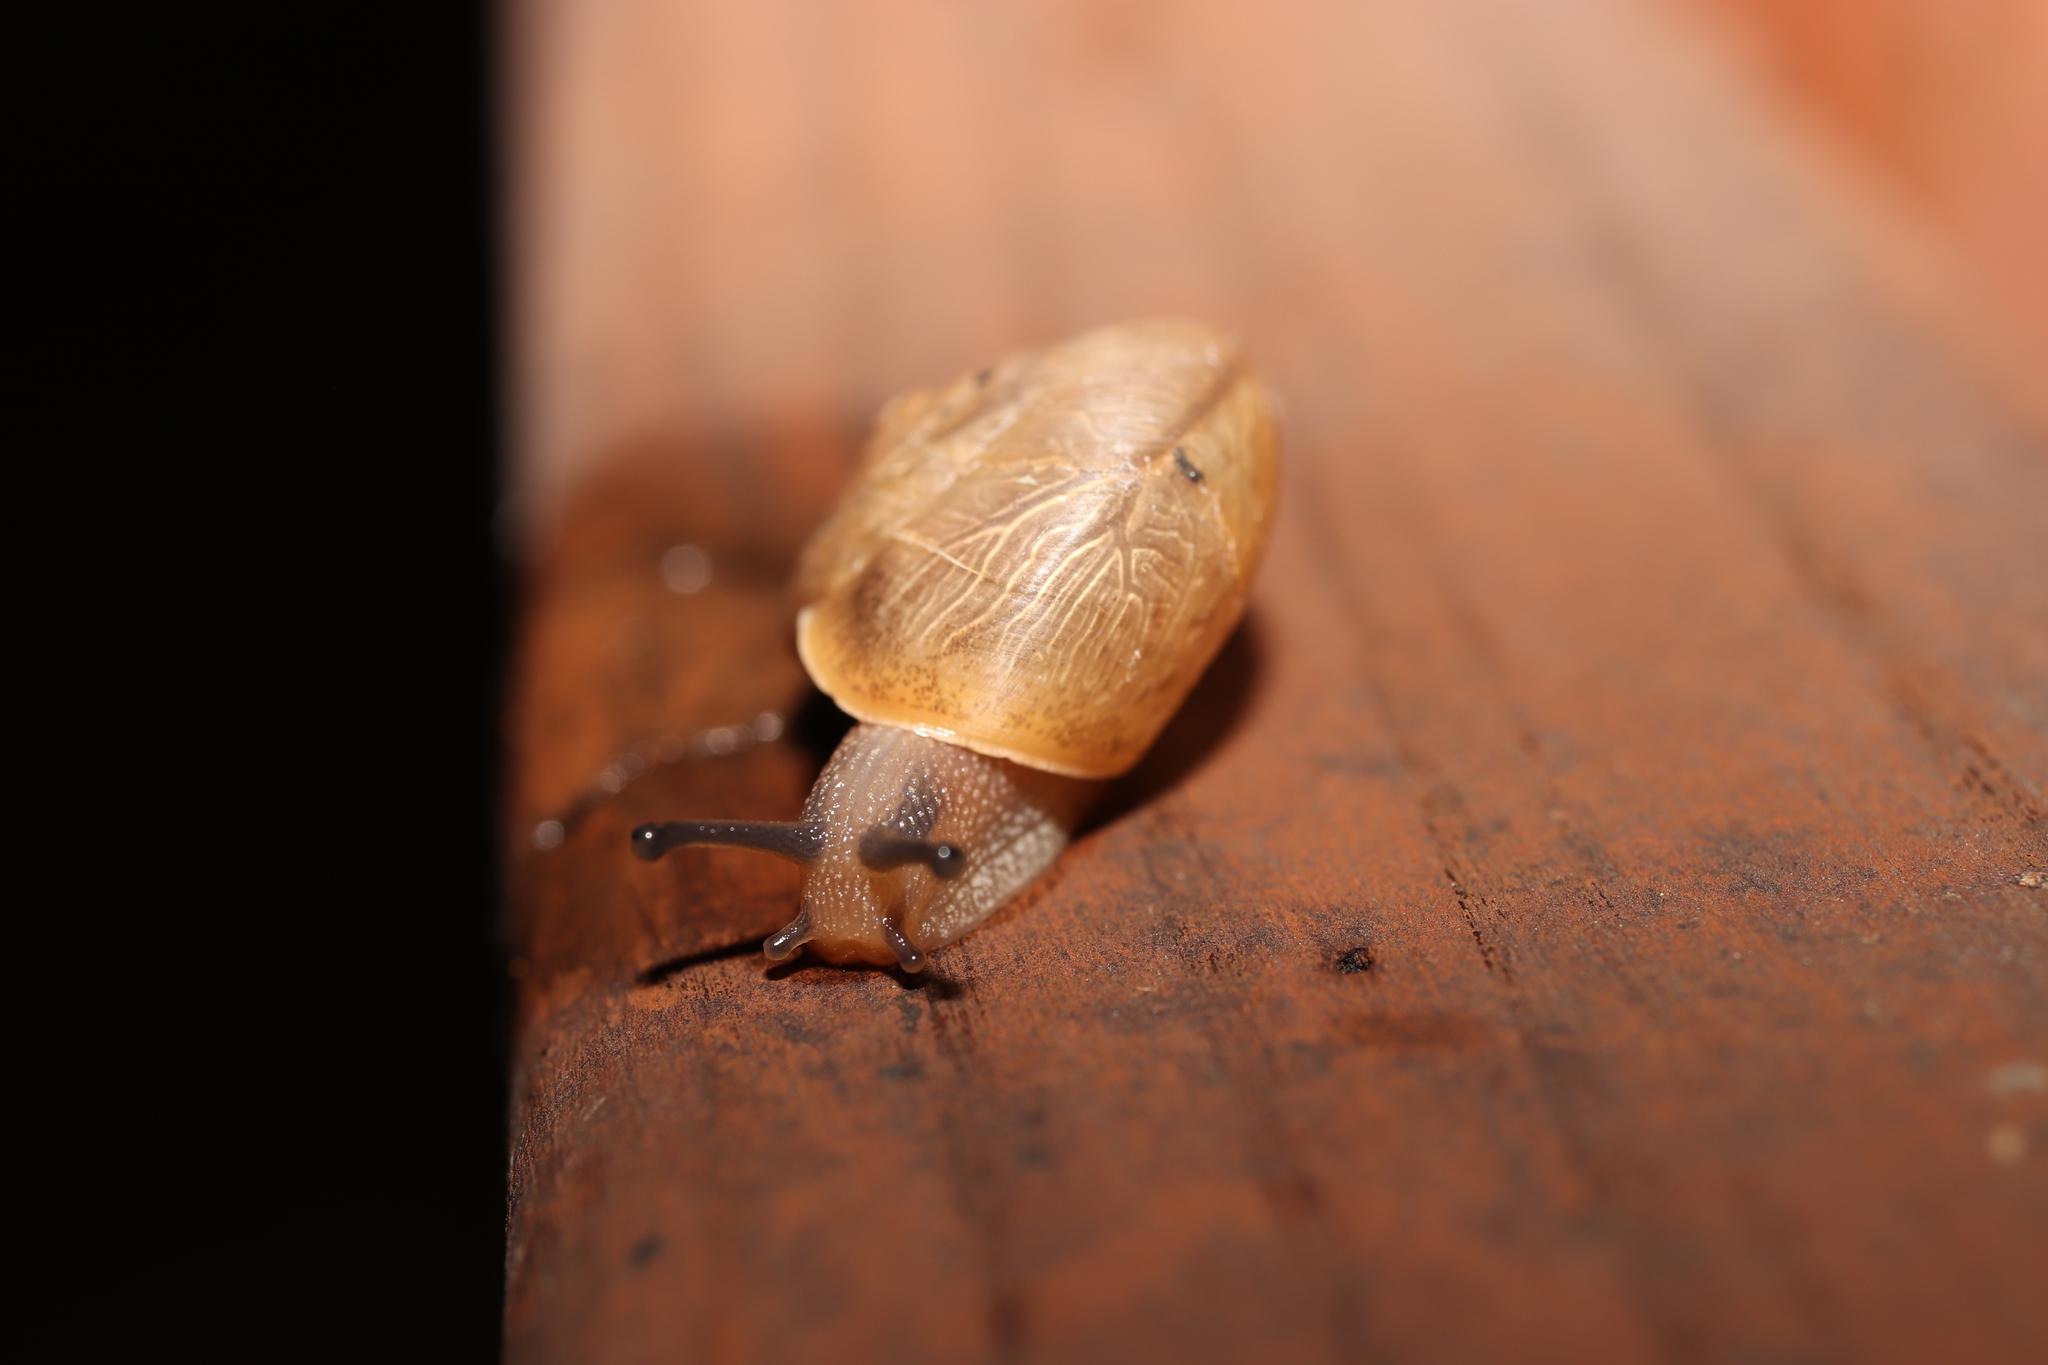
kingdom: Animalia
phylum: Mollusca
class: Gastropoda
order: Stylommatophora
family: Camaenidae
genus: Bradybaena
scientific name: Bradybaena similaris
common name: Asian trampsnail
